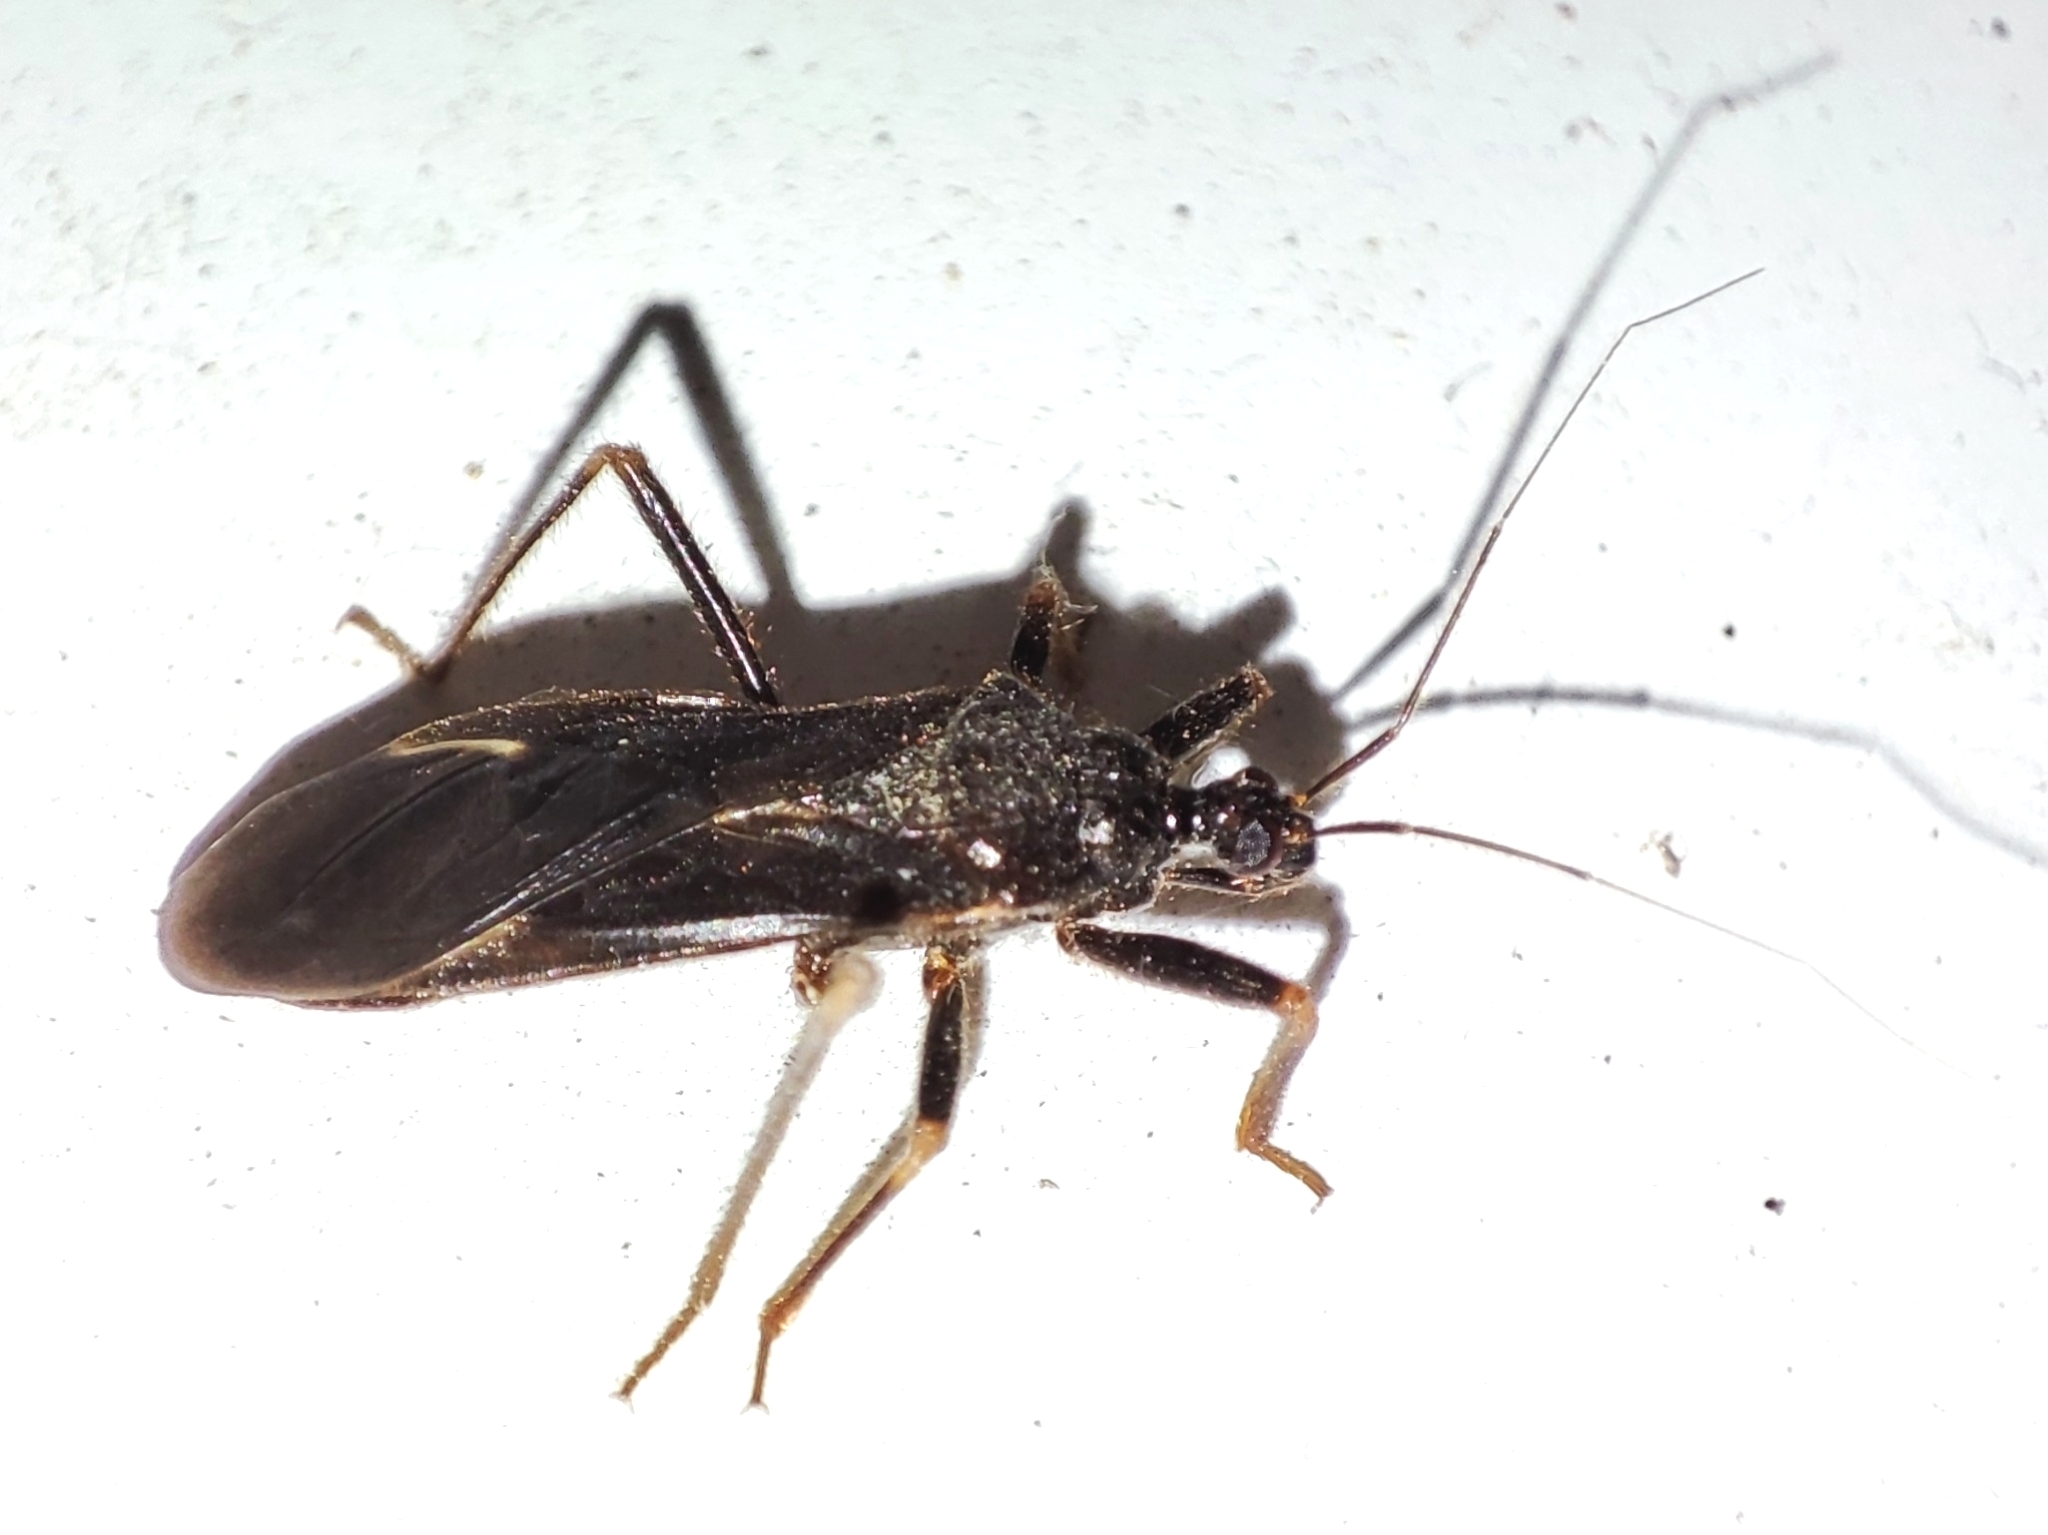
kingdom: Animalia
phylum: Arthropoda
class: Insecta
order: Hemiptera
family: Reduviidae
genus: Reduvius
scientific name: Reduvius personatus
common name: Masked hunter
